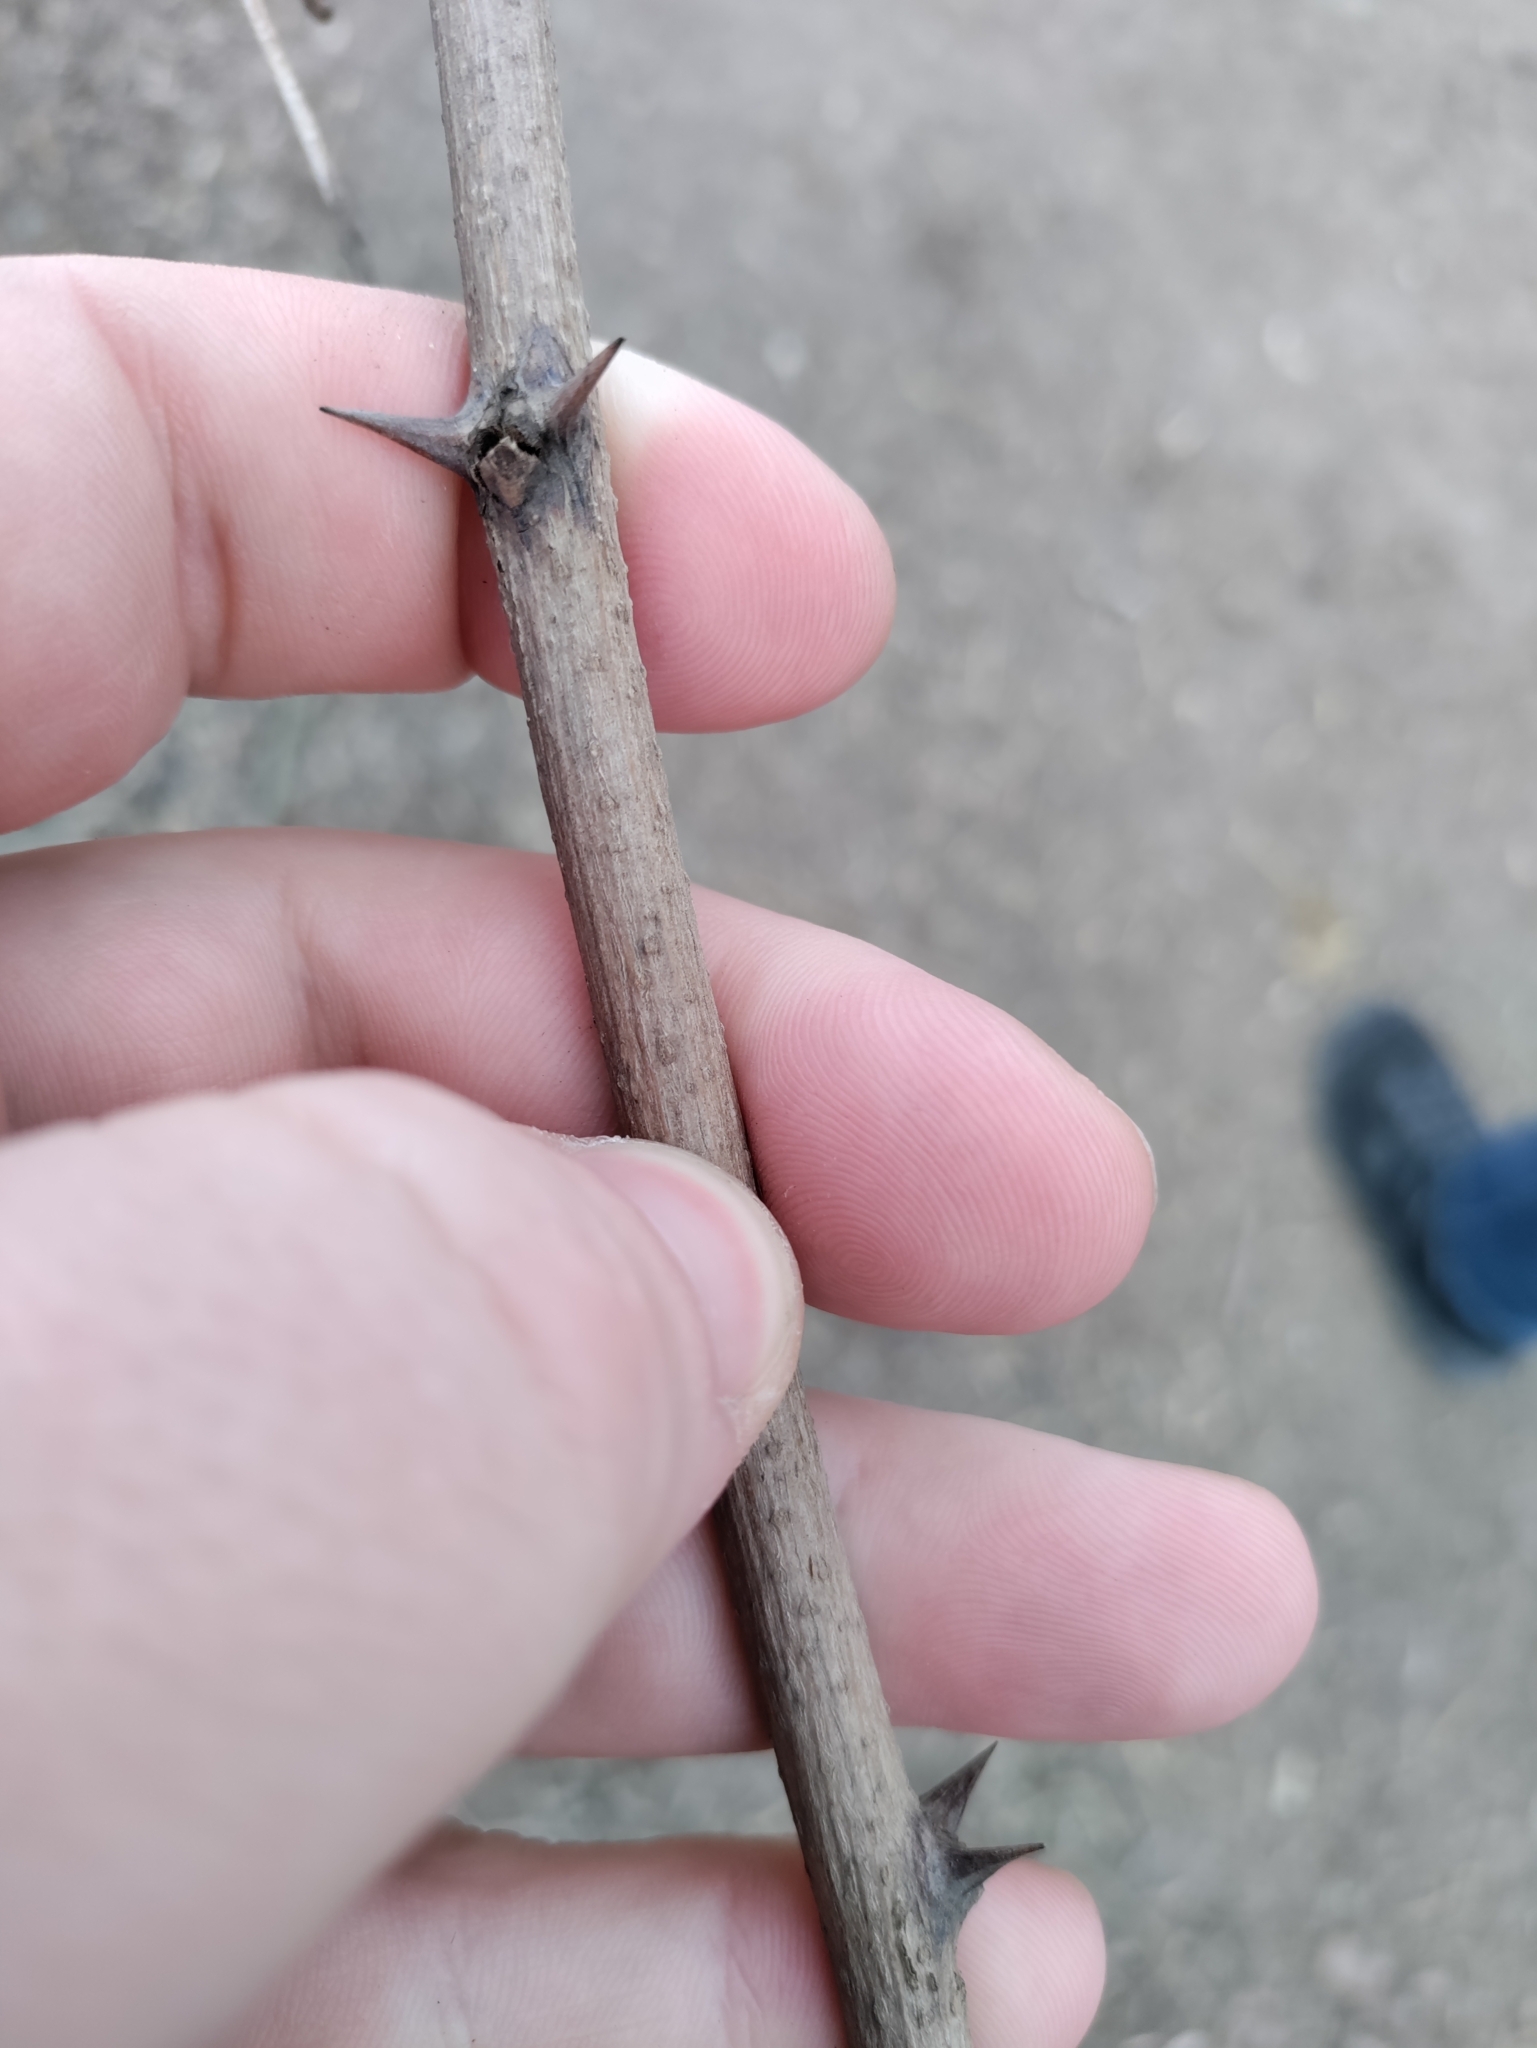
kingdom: Plantae
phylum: Tracheophyta
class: Magnoliopsida
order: Fabales
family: Fabaceae
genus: Robinia
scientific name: Robinia pseudoacacia
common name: Black locust
